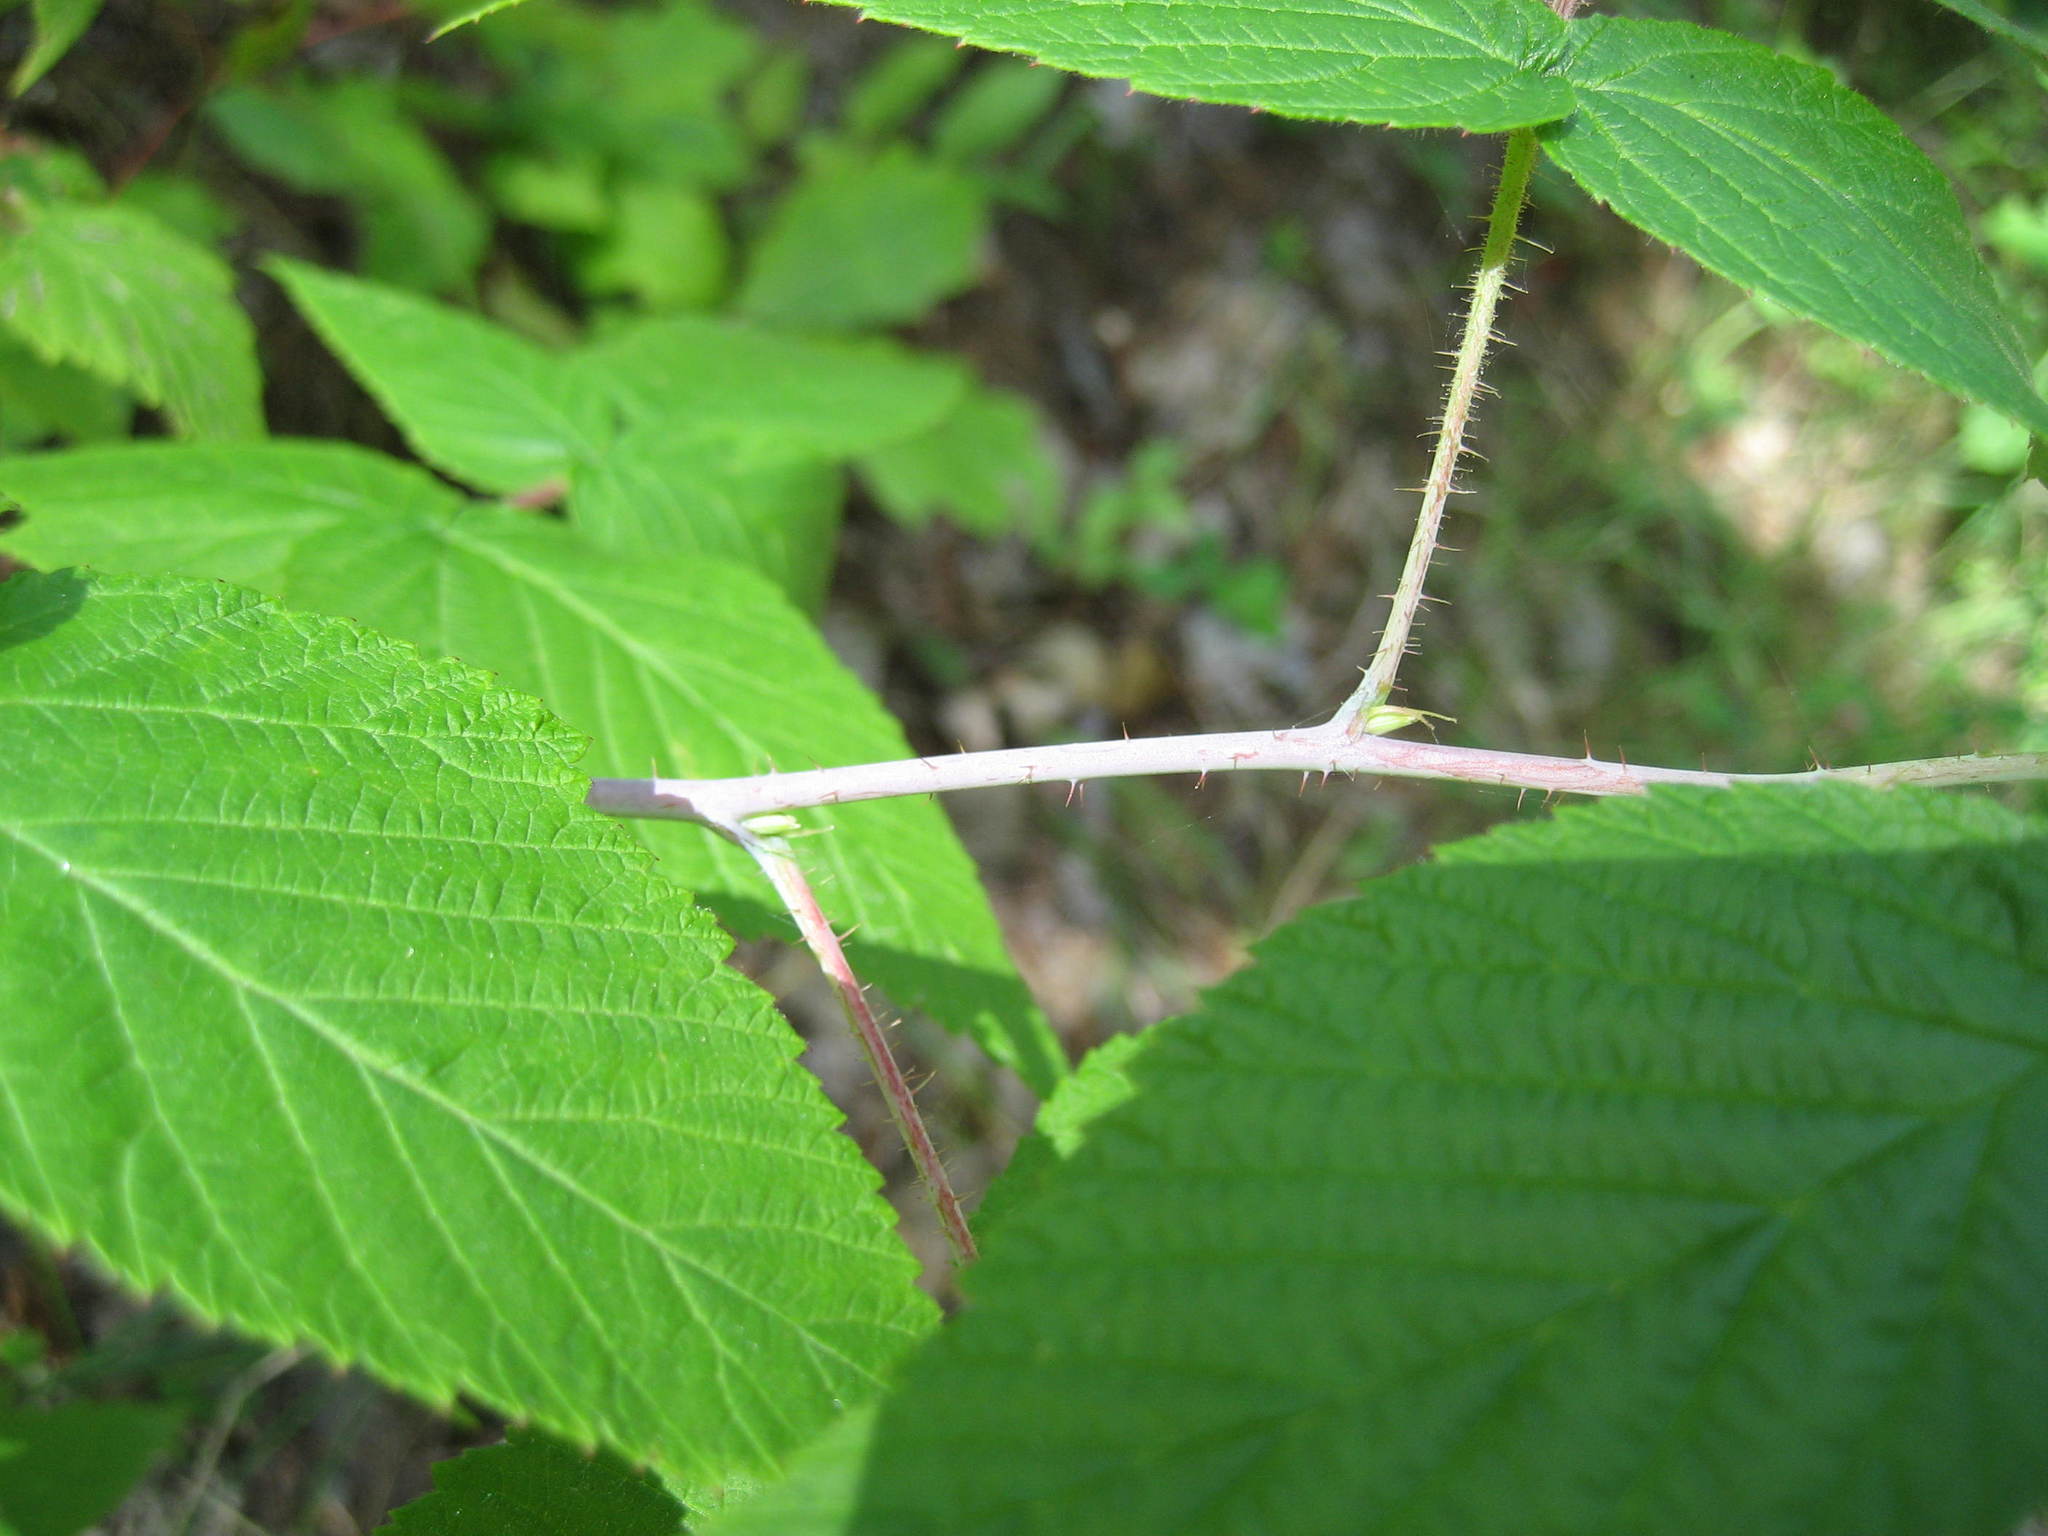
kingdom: Plantae
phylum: Tracheophyta
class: Magnoliopsida
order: Rosales
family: Rosaceae
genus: Rubus
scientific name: Rubus idaeus
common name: Raspberry
